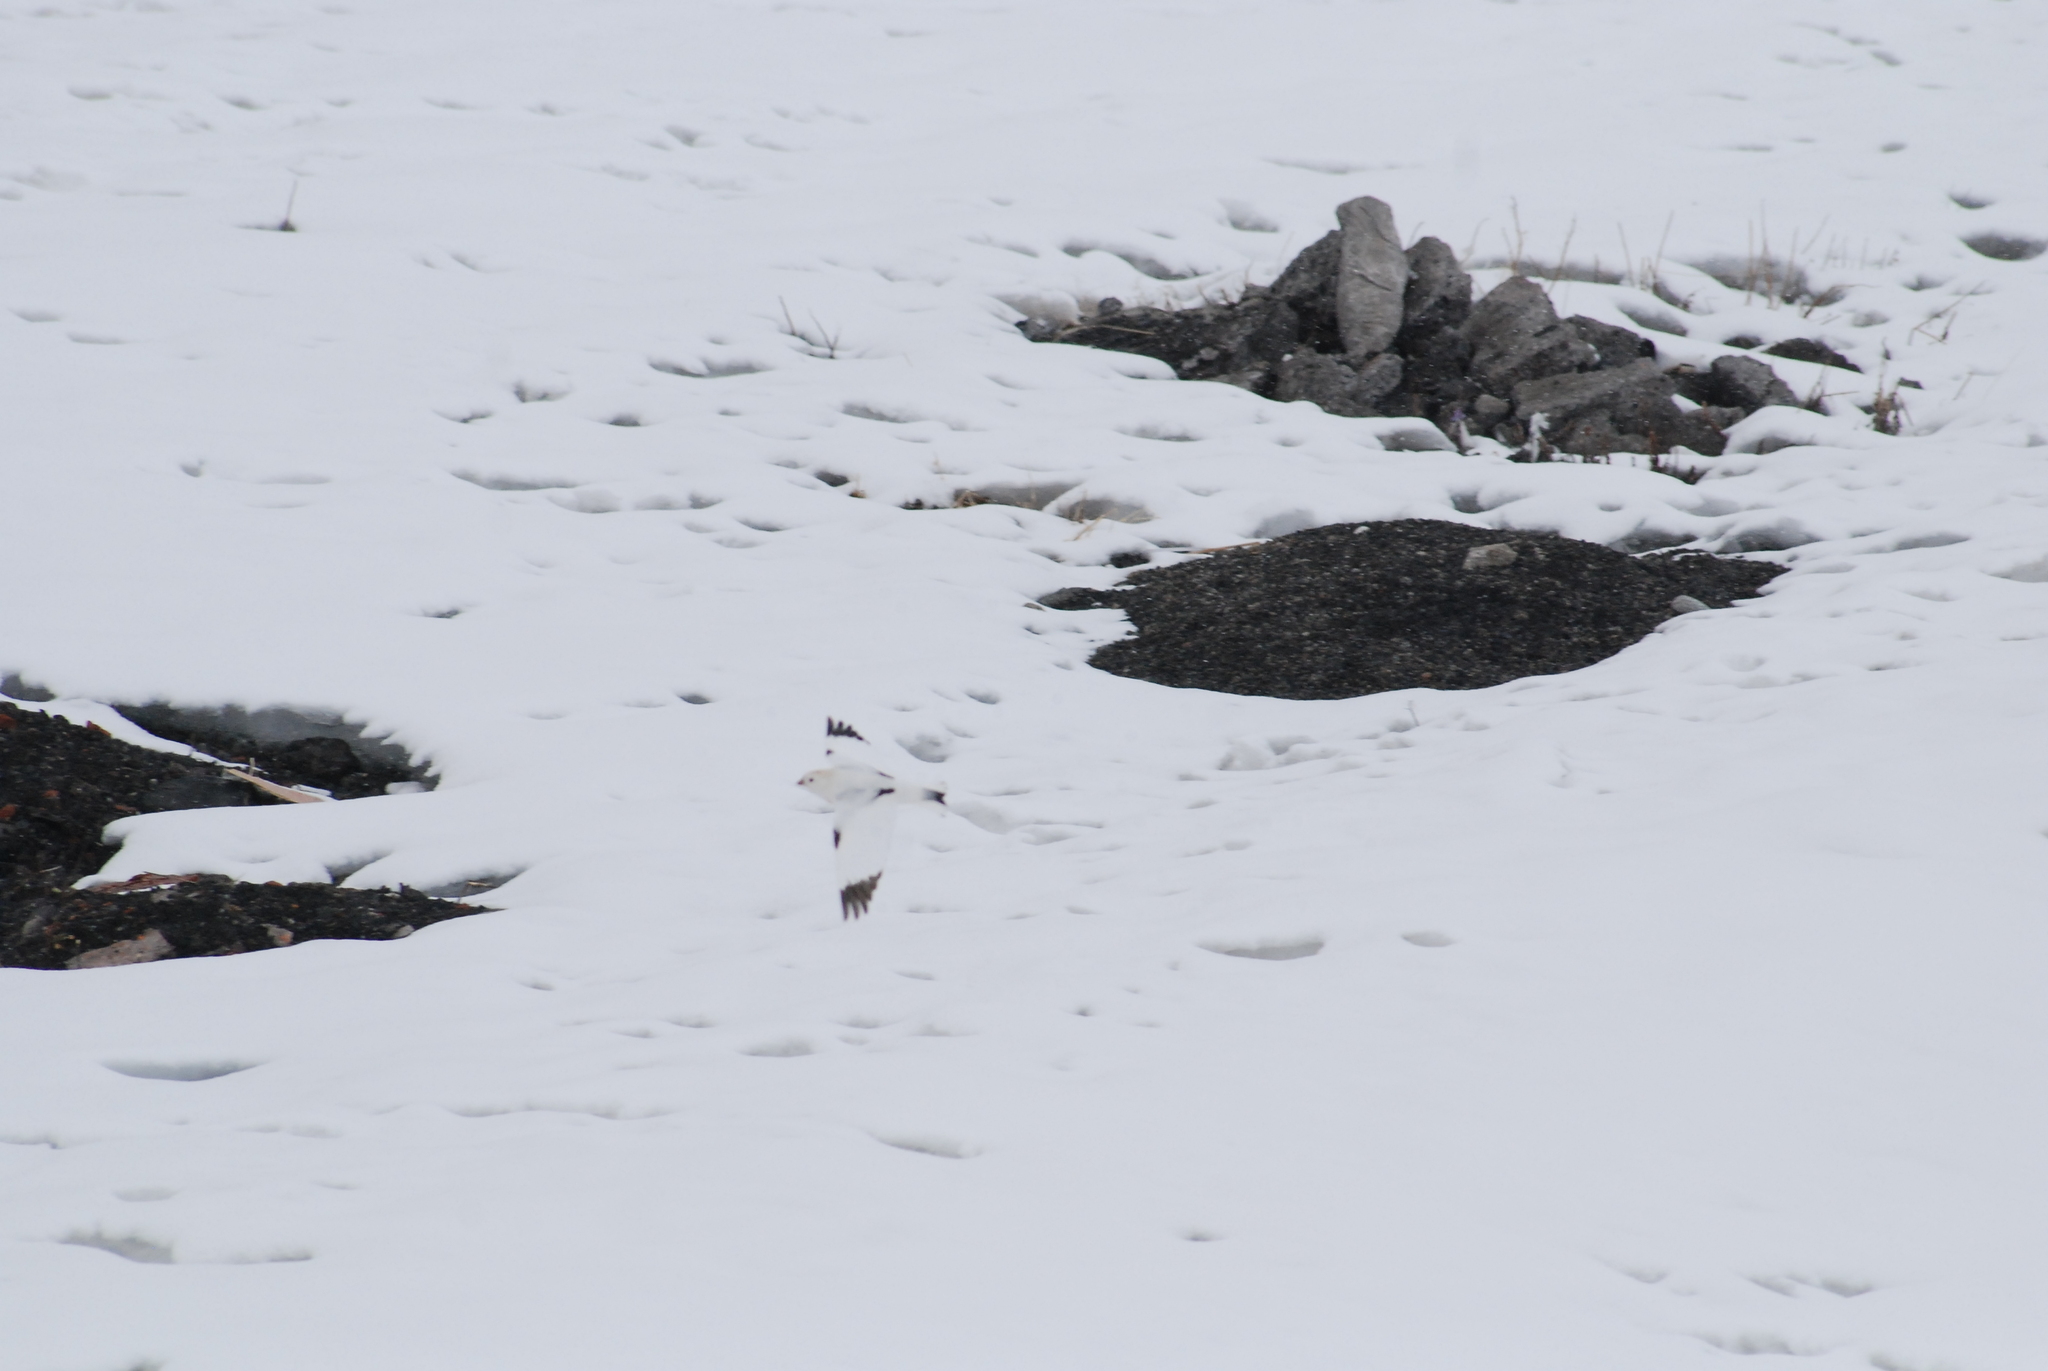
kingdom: Animalia
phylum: Chordata
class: Aves
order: Passeriformes
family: Calcariidae
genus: Plectrophenax
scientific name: Plectrophenax hyperboreus
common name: Mckay's bunting
